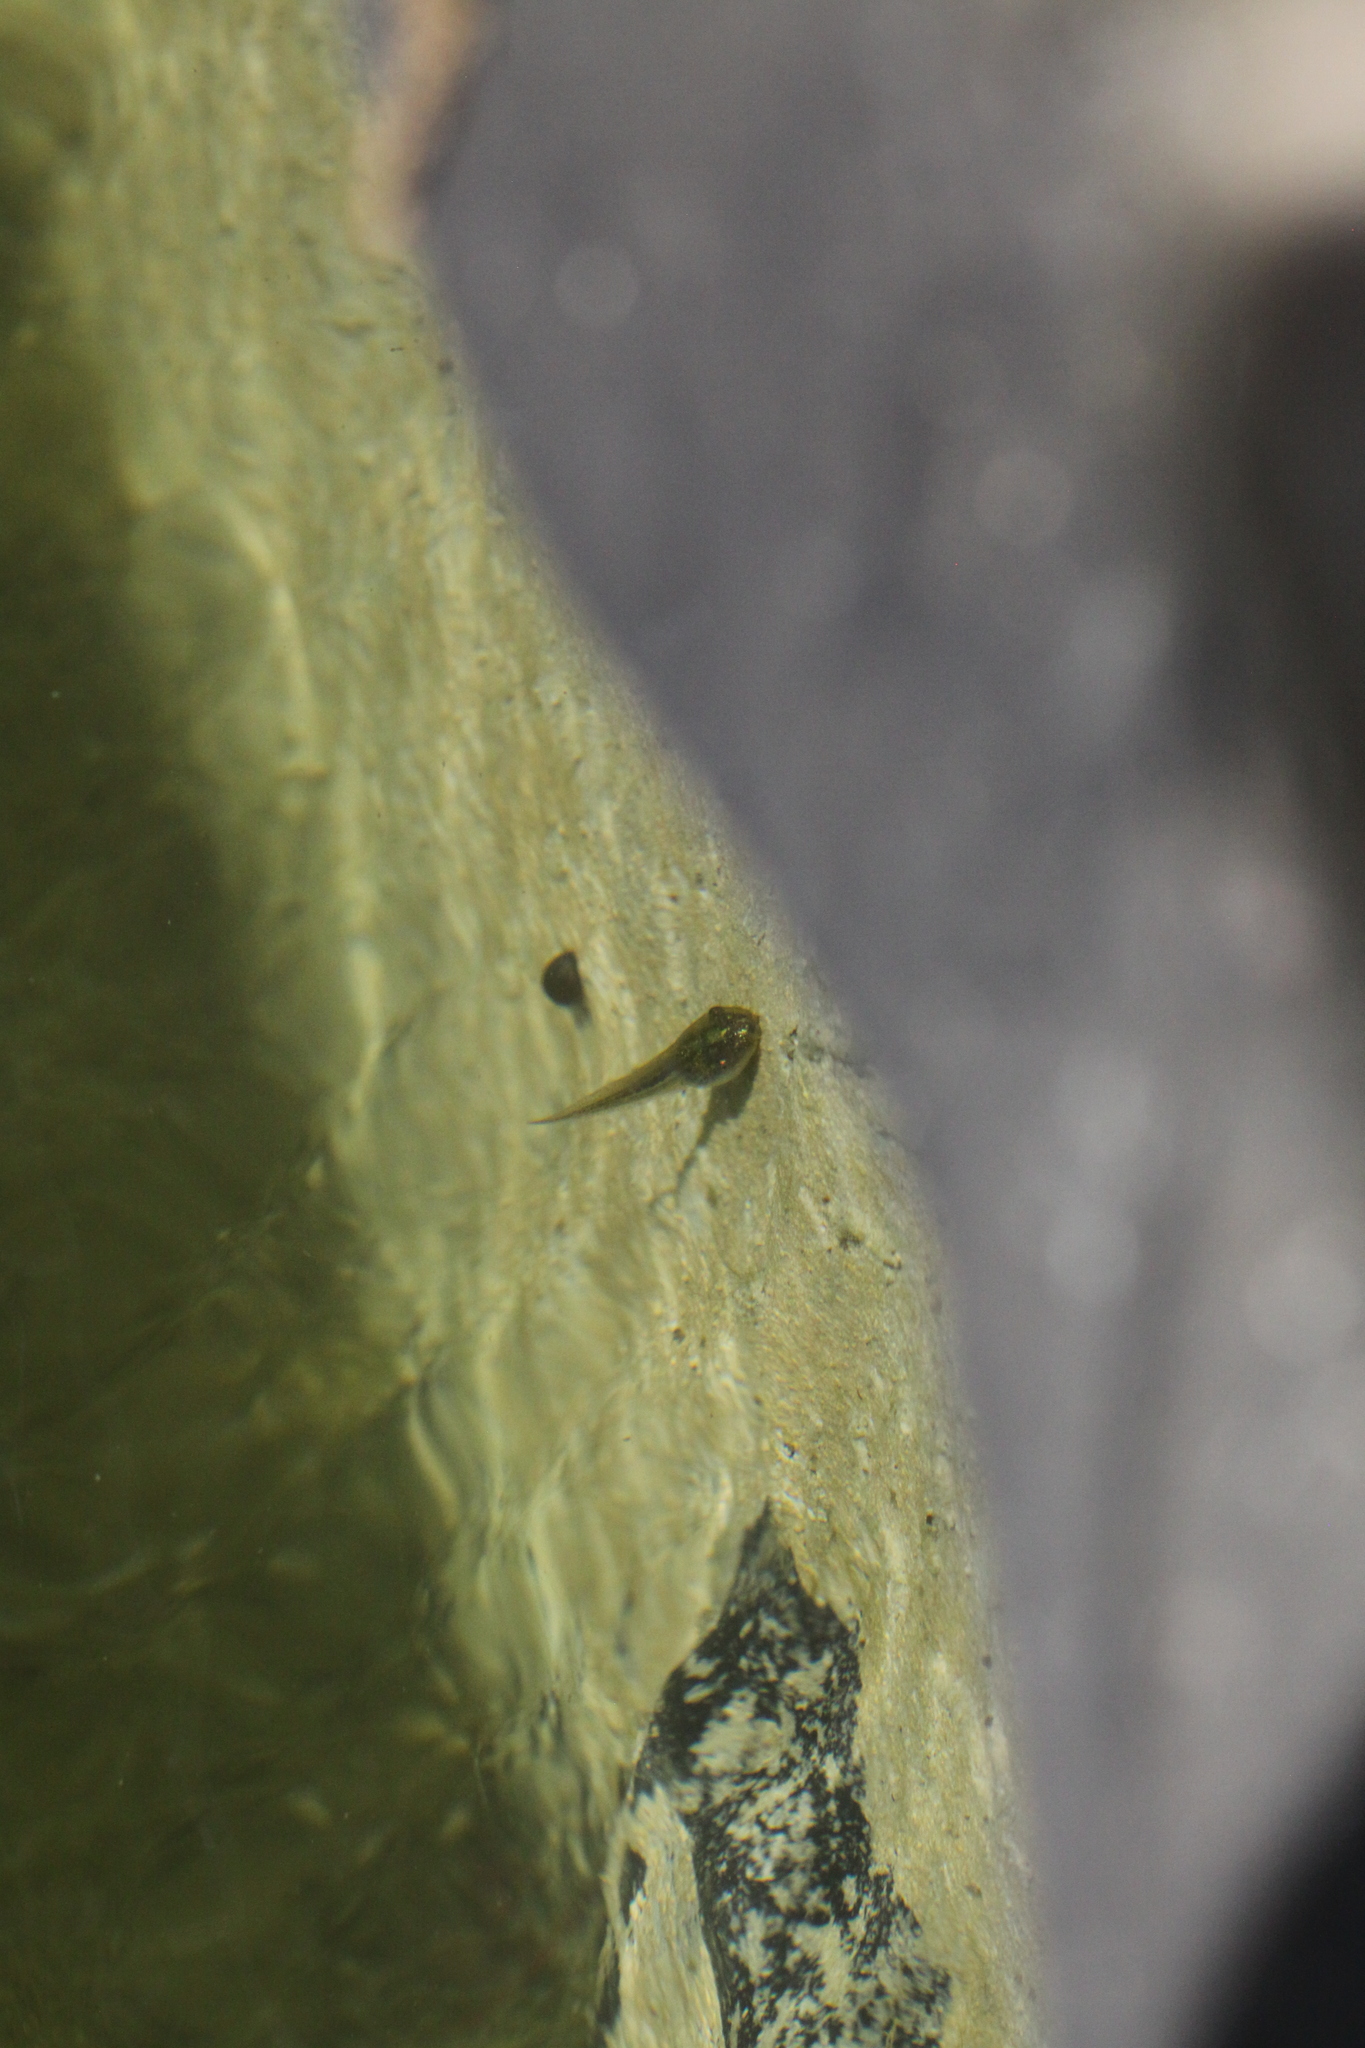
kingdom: Animalia
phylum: Chordata
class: Amphibia
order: Anura
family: Hylidae
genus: Hyla
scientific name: Hyla meridionalis
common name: Stripeless tree frog
